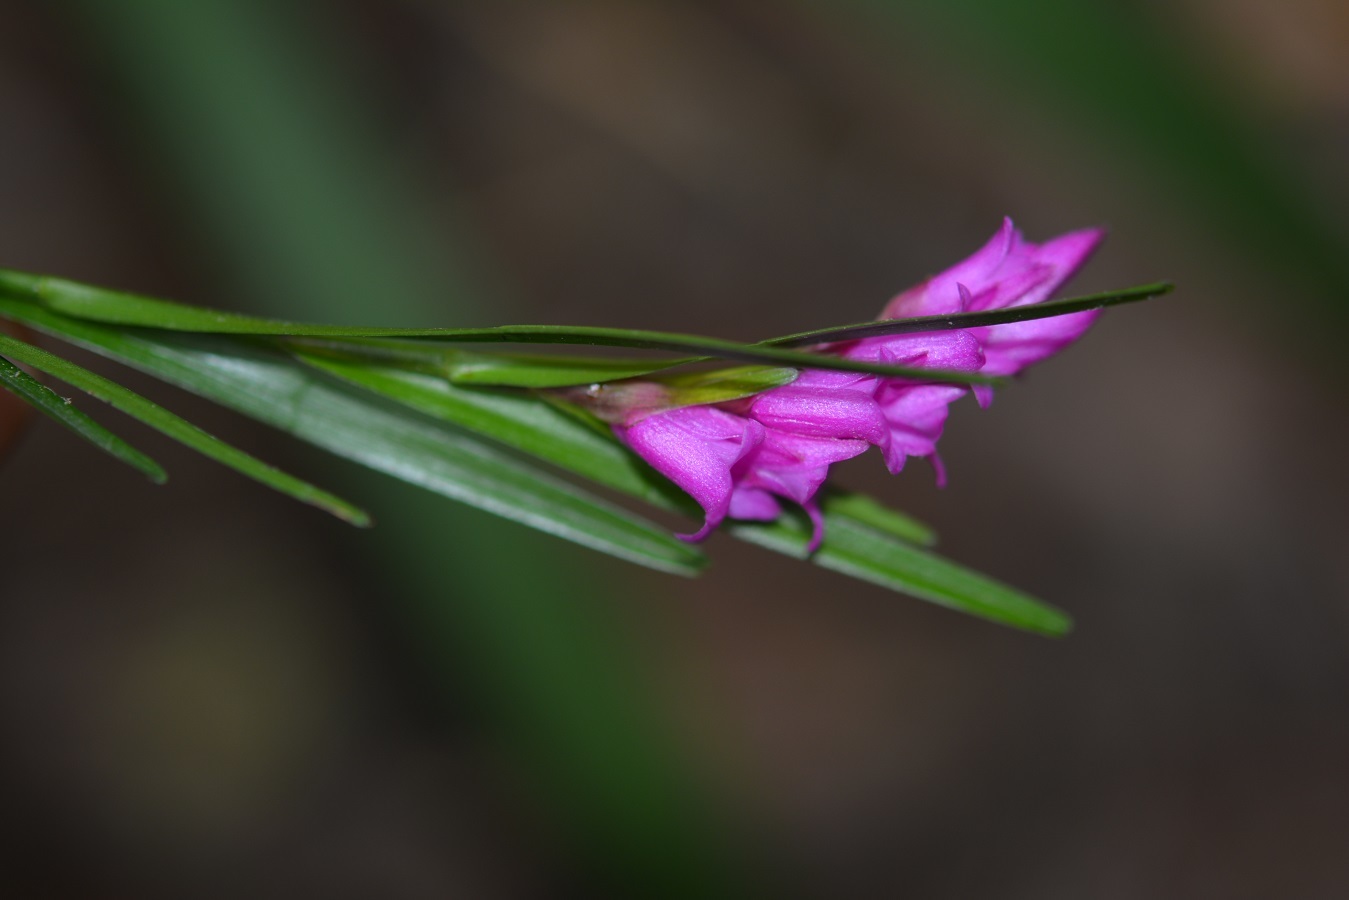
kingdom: Plantae
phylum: Tracheophyta
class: Liliopsida
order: Asparagales
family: Orchidaceae
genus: Isochilus
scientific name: Isochilus carnosiflorus
